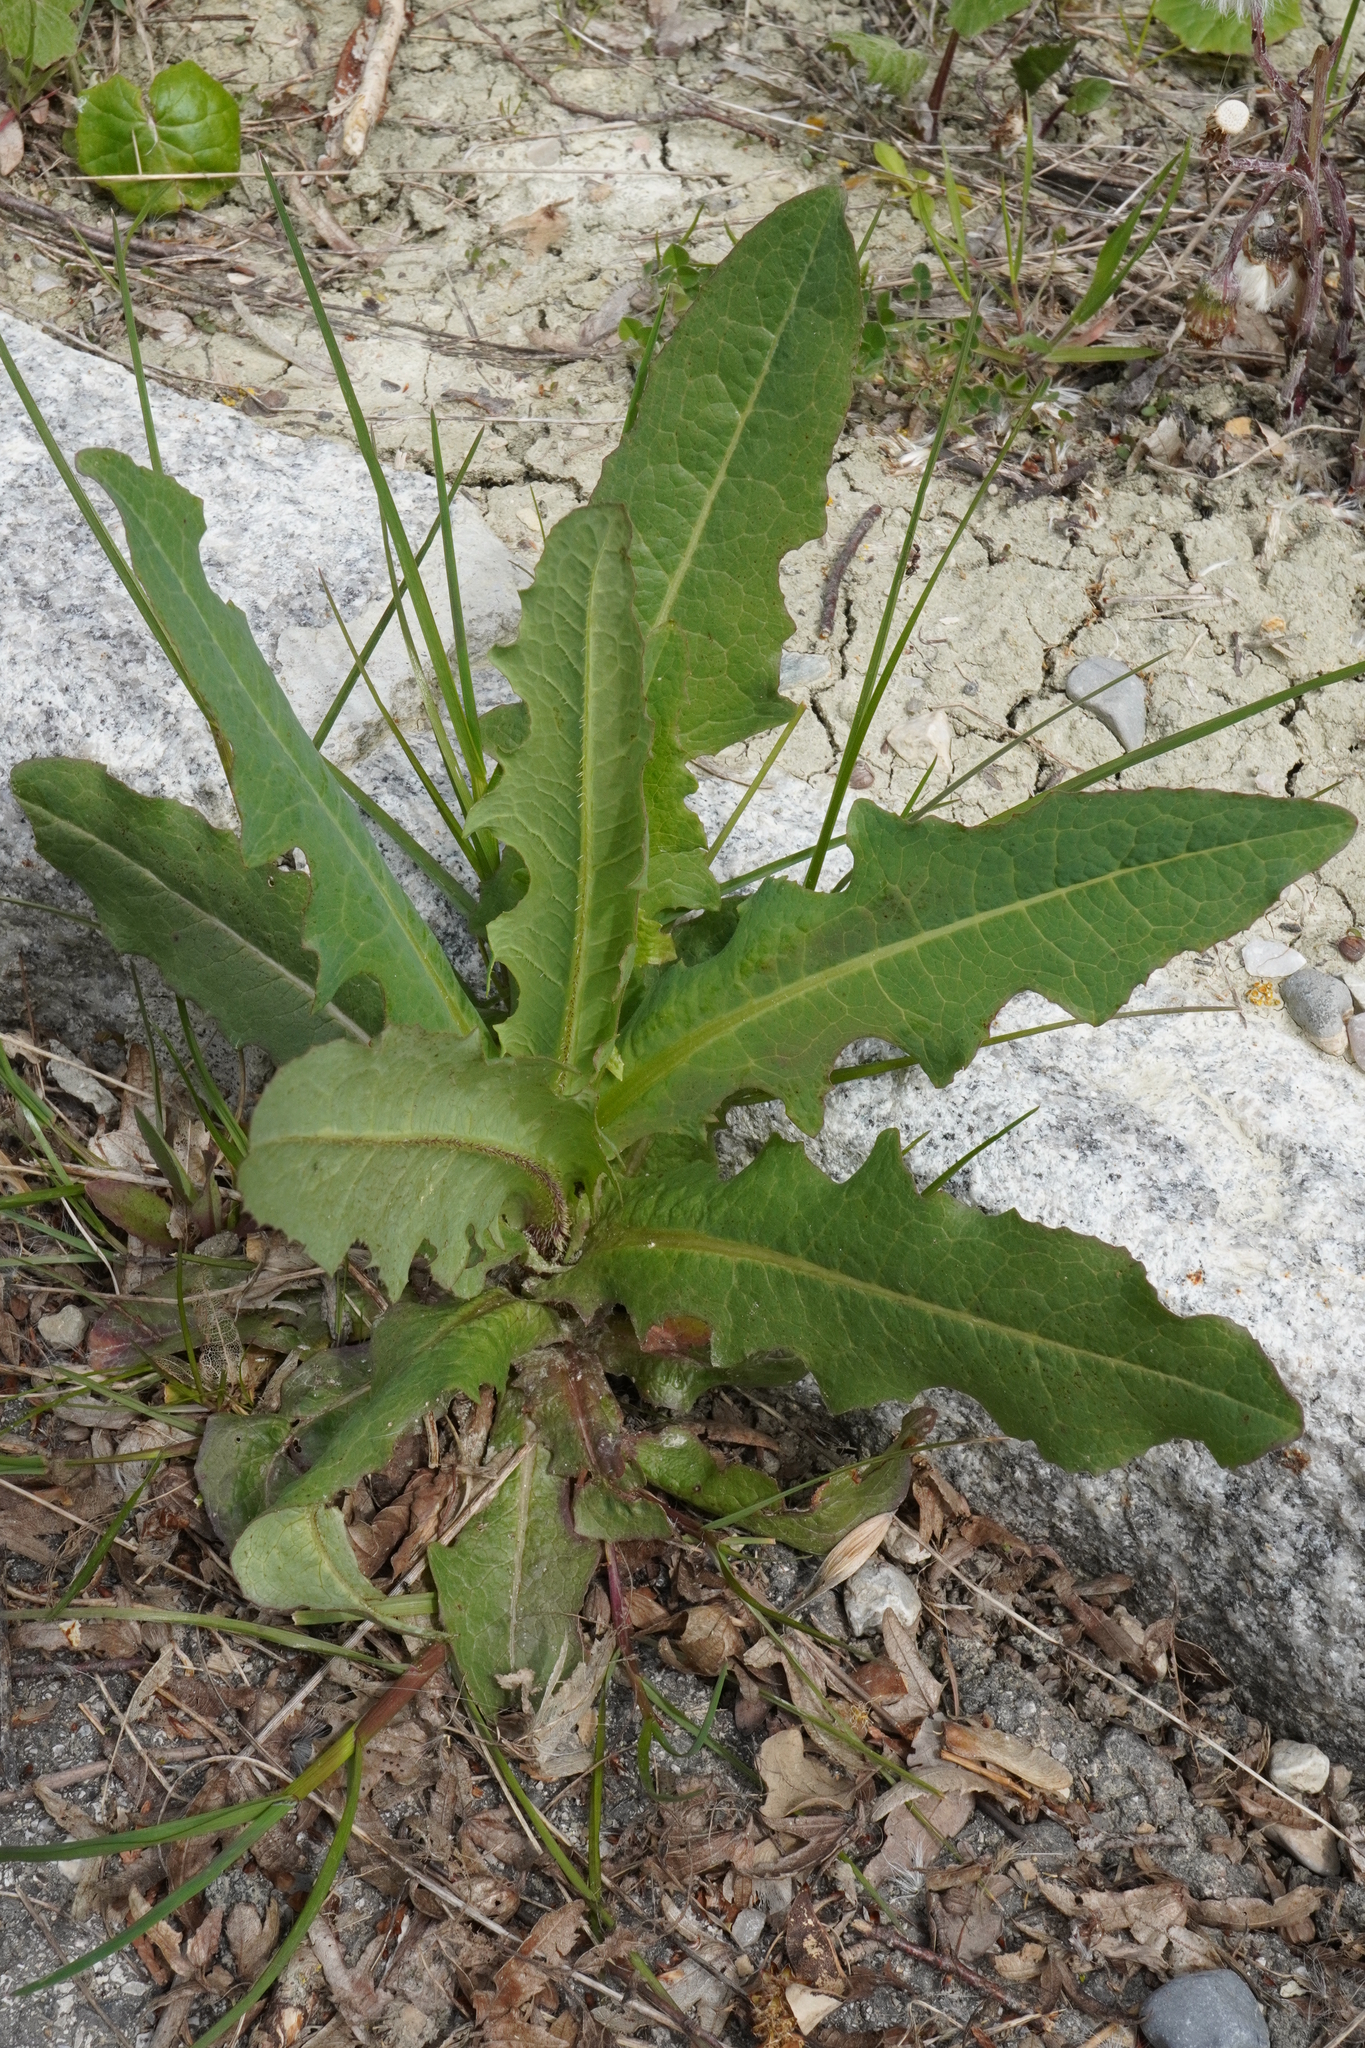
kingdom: Plantae
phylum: Tracheophyta
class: Magnoliopsida
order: Asterales
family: Asteraceae
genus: Lactuca
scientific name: Lactuca serriola
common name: Prickly lettuce
